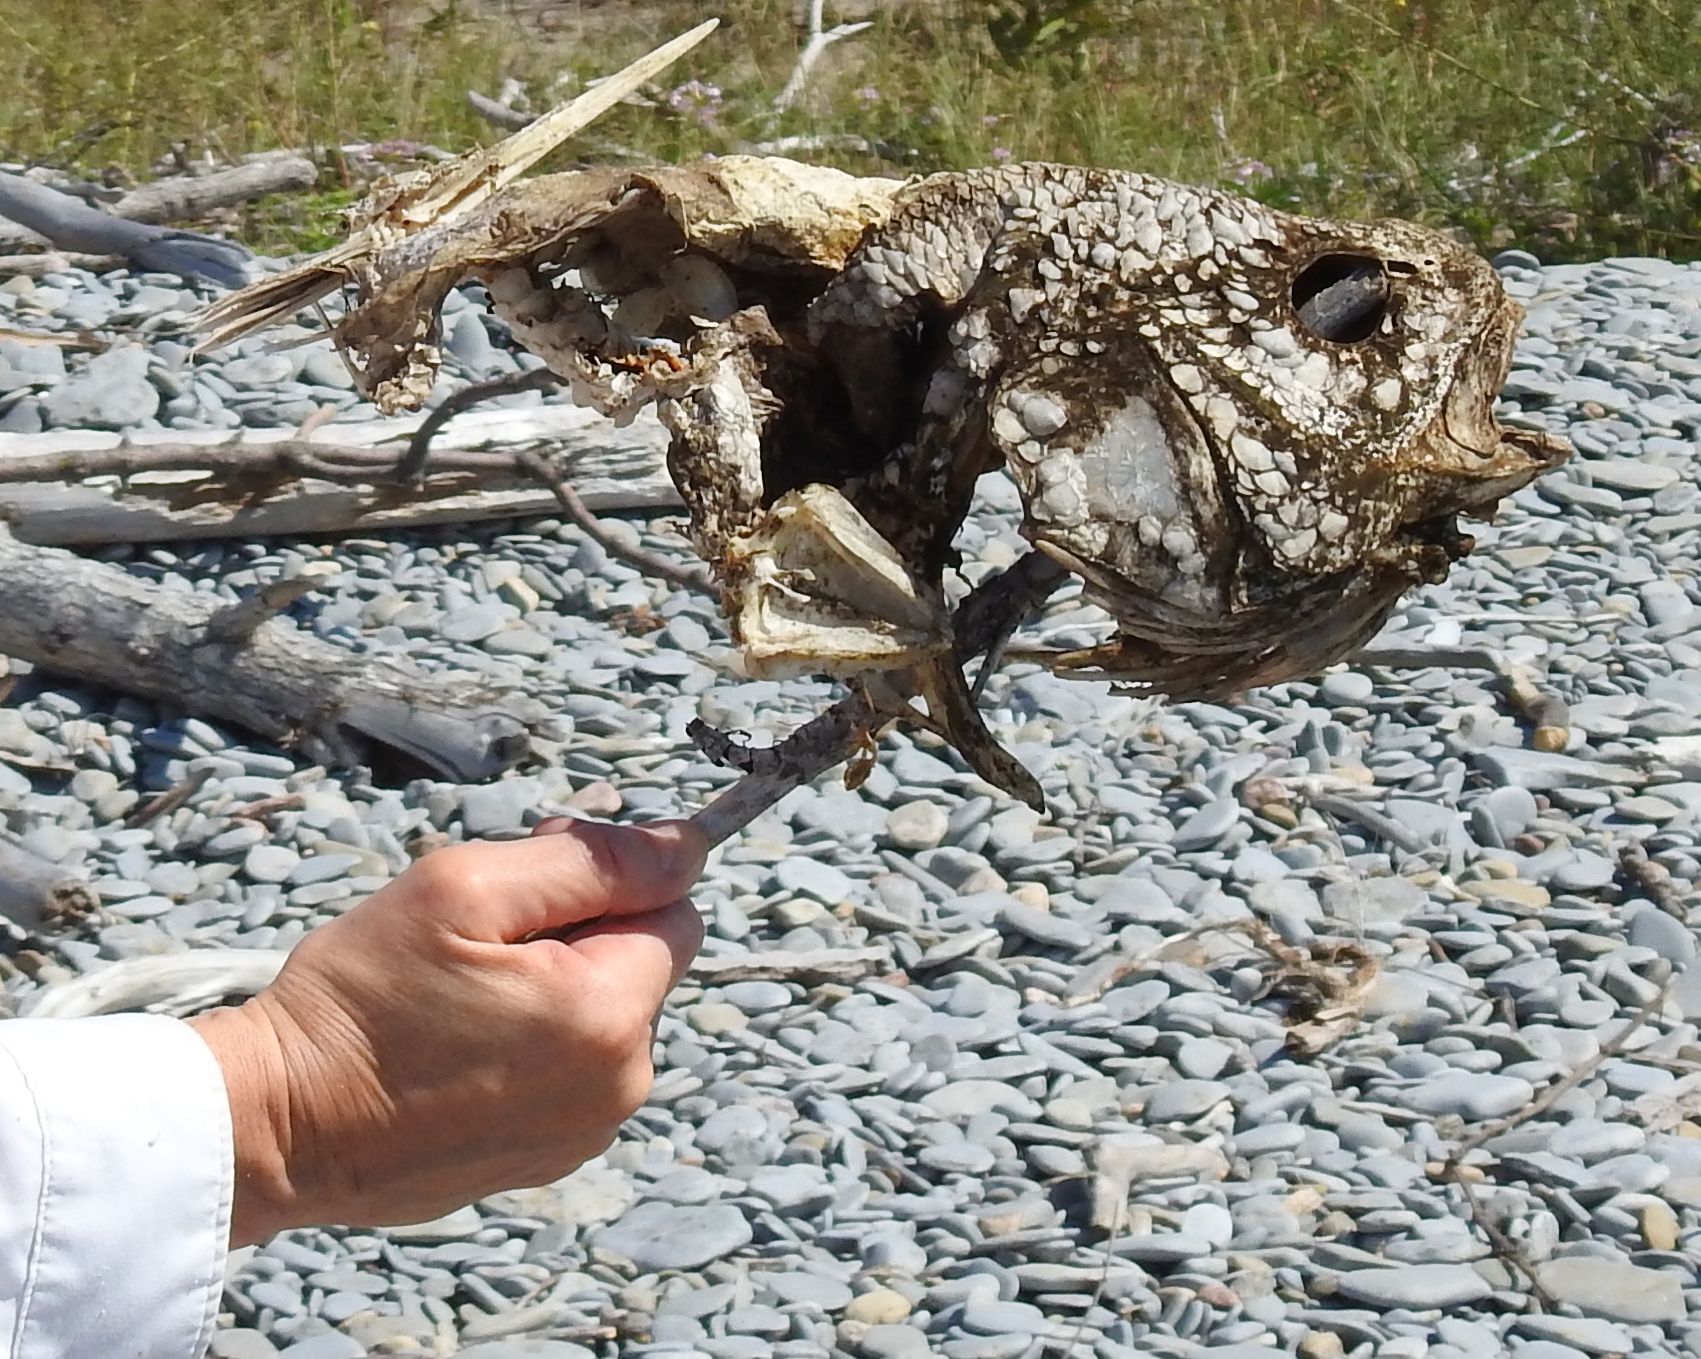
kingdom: Animalia
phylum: Chordata
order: Perciformes
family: Sciaenidae
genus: Aplodinotus
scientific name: Aplodinotus grunniens
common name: Freshwater drum
